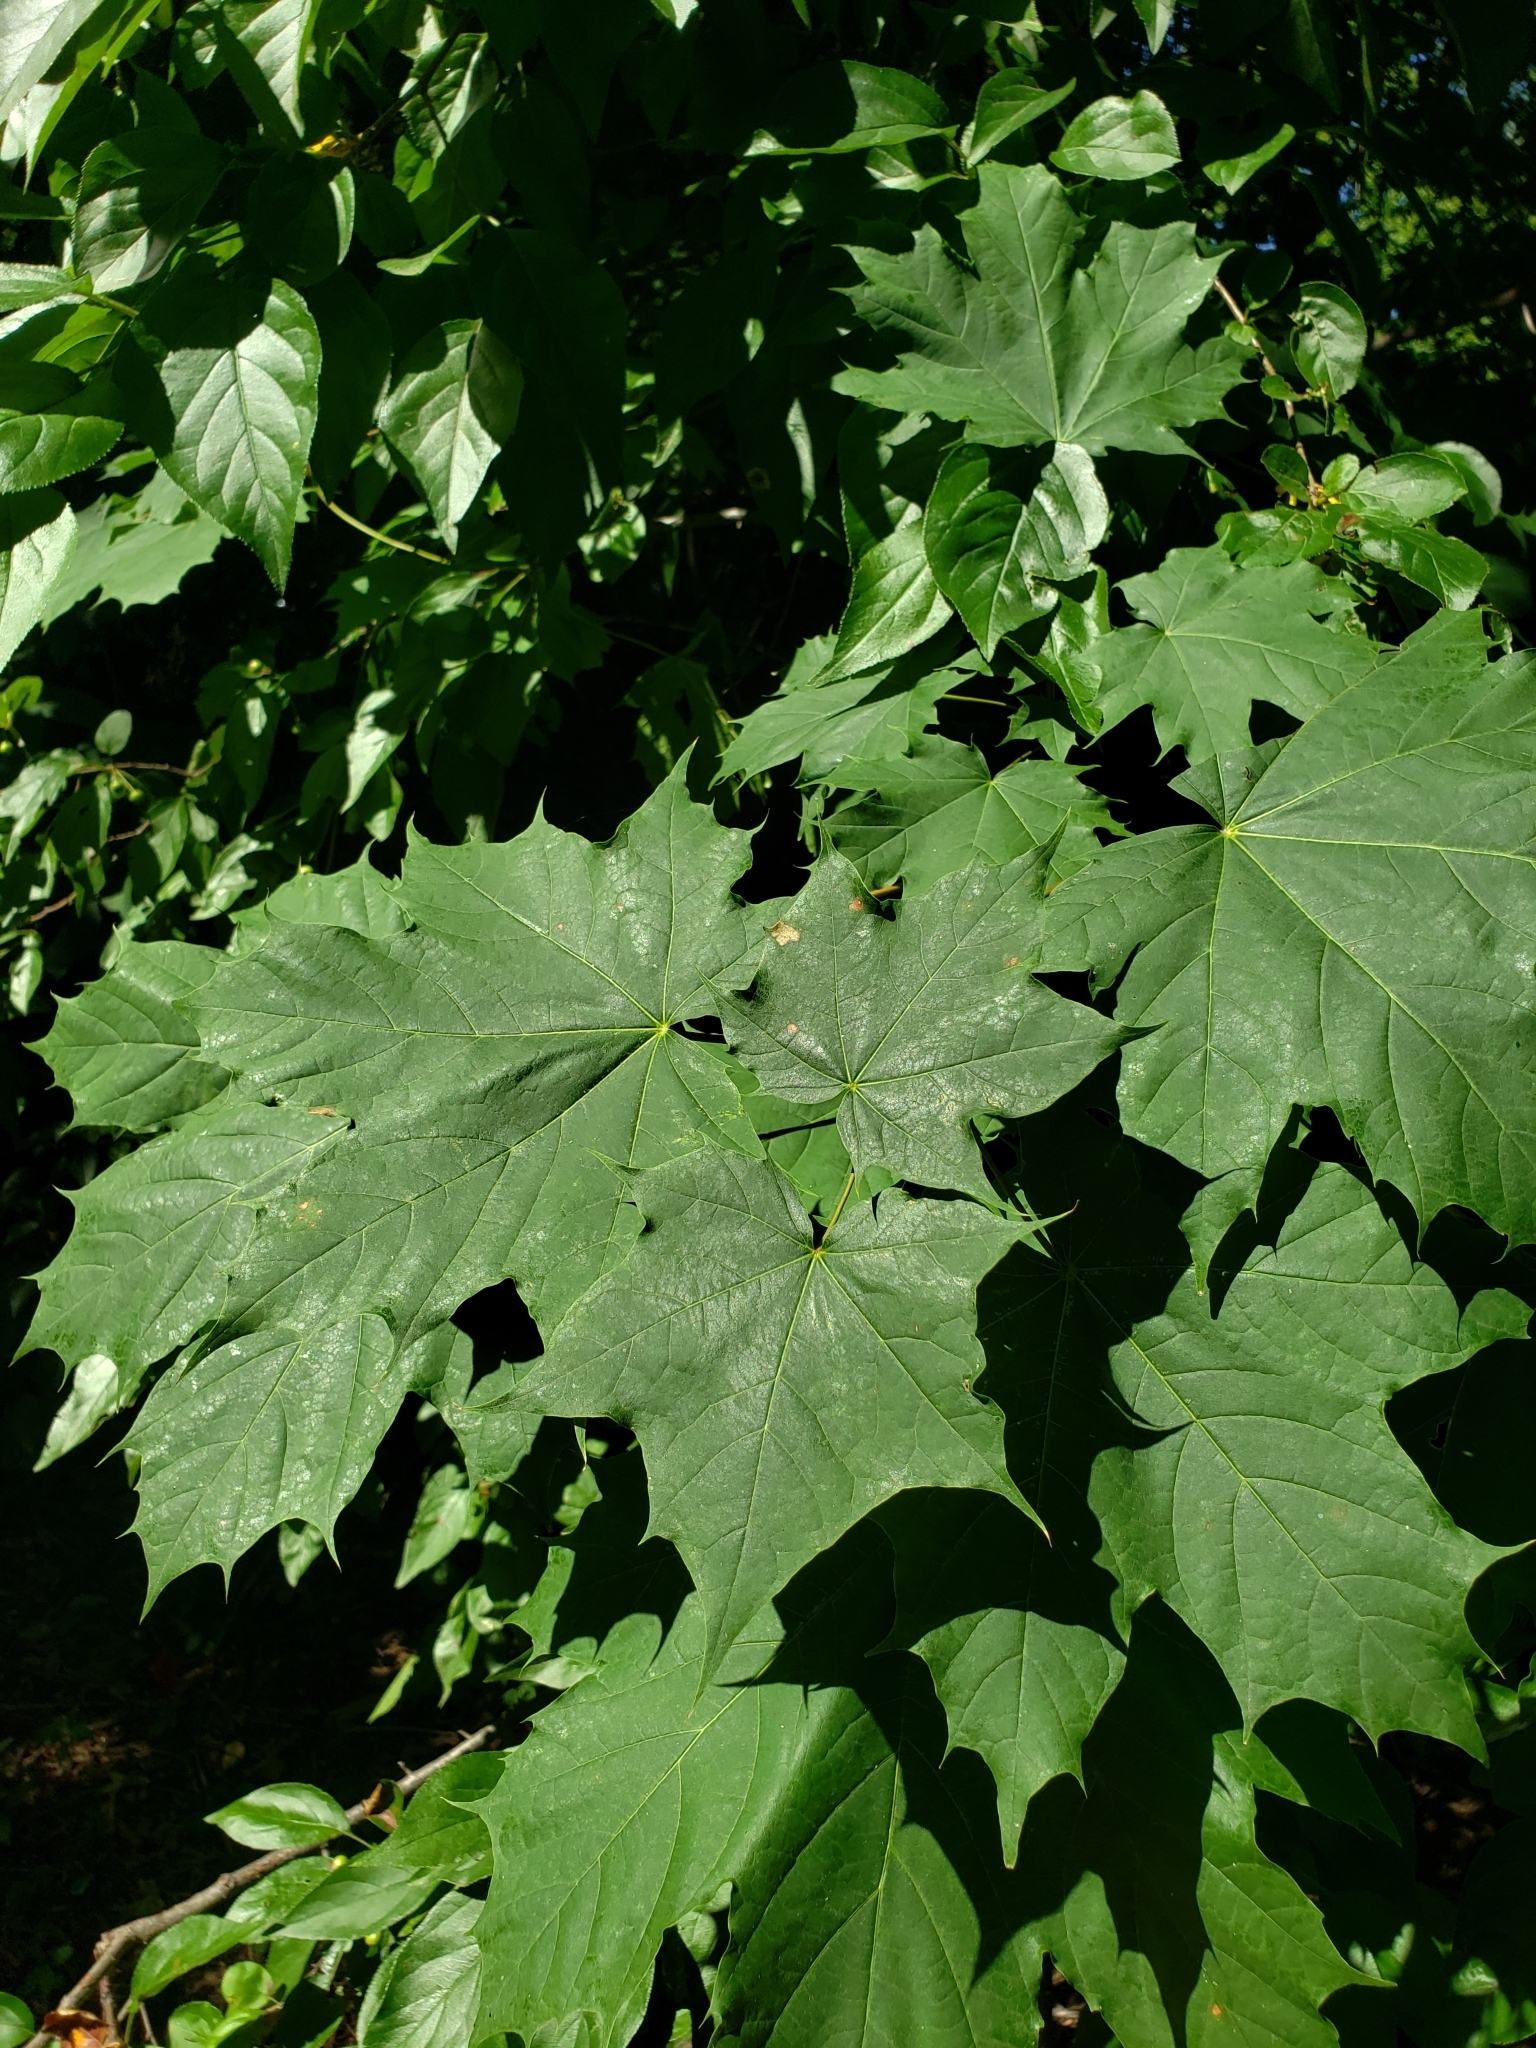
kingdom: Plantae
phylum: Tracheophyta
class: Magnoliopsida
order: Sapindales
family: Sapindaceae
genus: Acer
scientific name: Acer platanoides
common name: Norway maple
